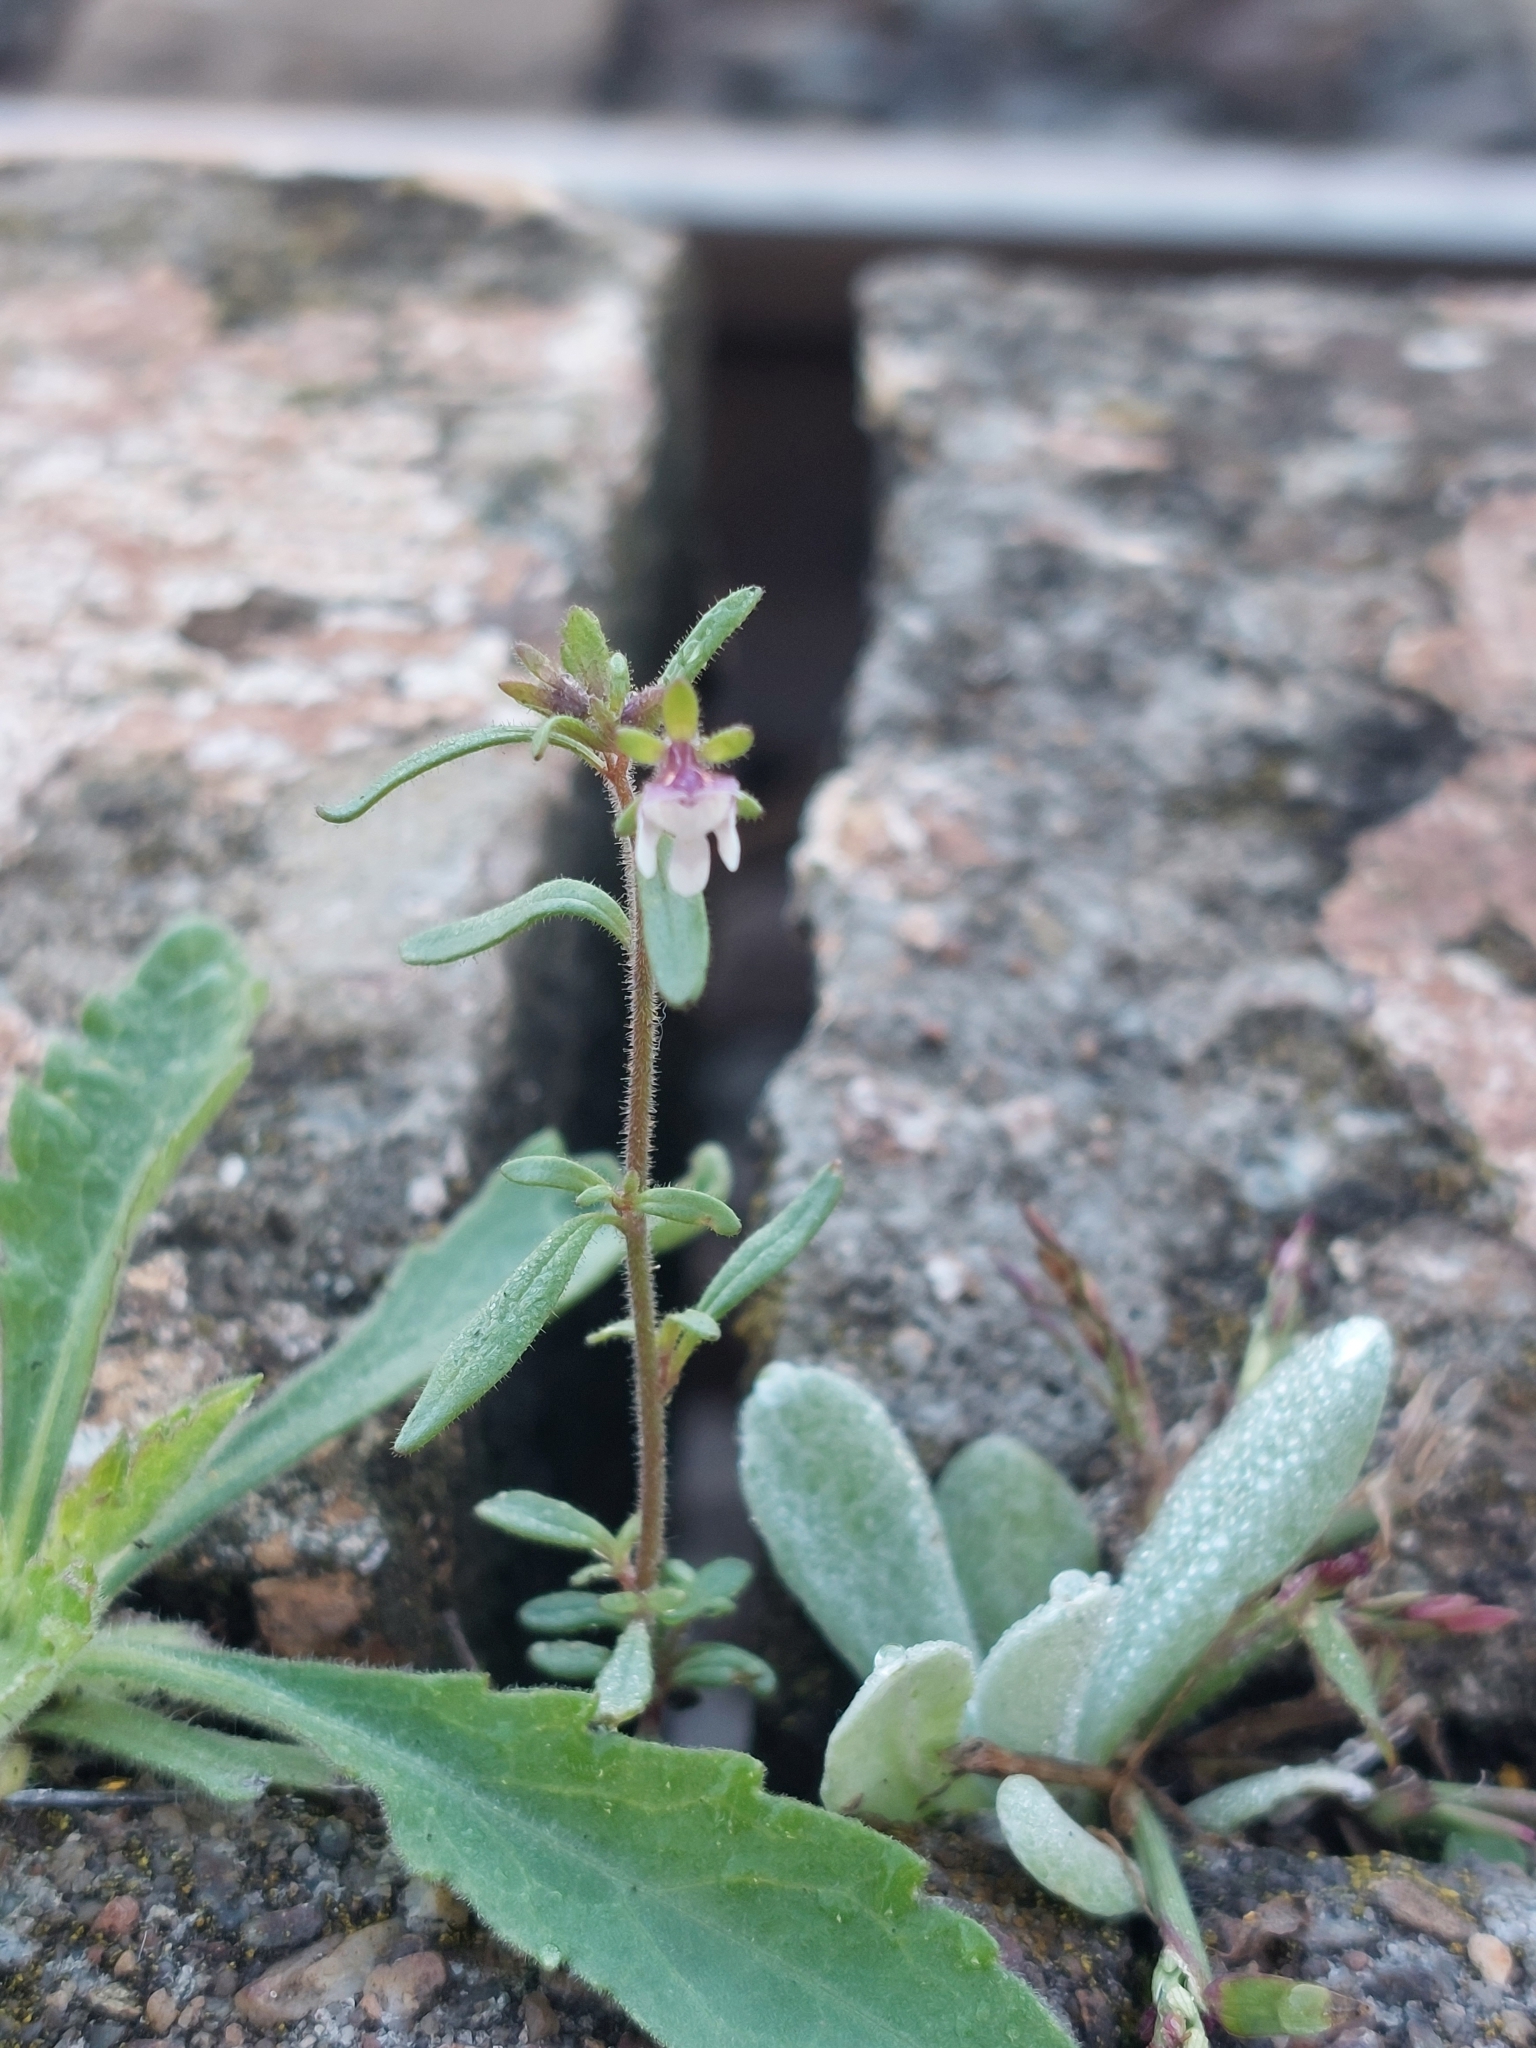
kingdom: Plantae
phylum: Tracheophyta
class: Magnoliopsida
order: Lamiales
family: Plantaginaceae
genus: Chaenorhinum
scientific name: Chaenorhinum minus
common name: Dwarf snapdragon
